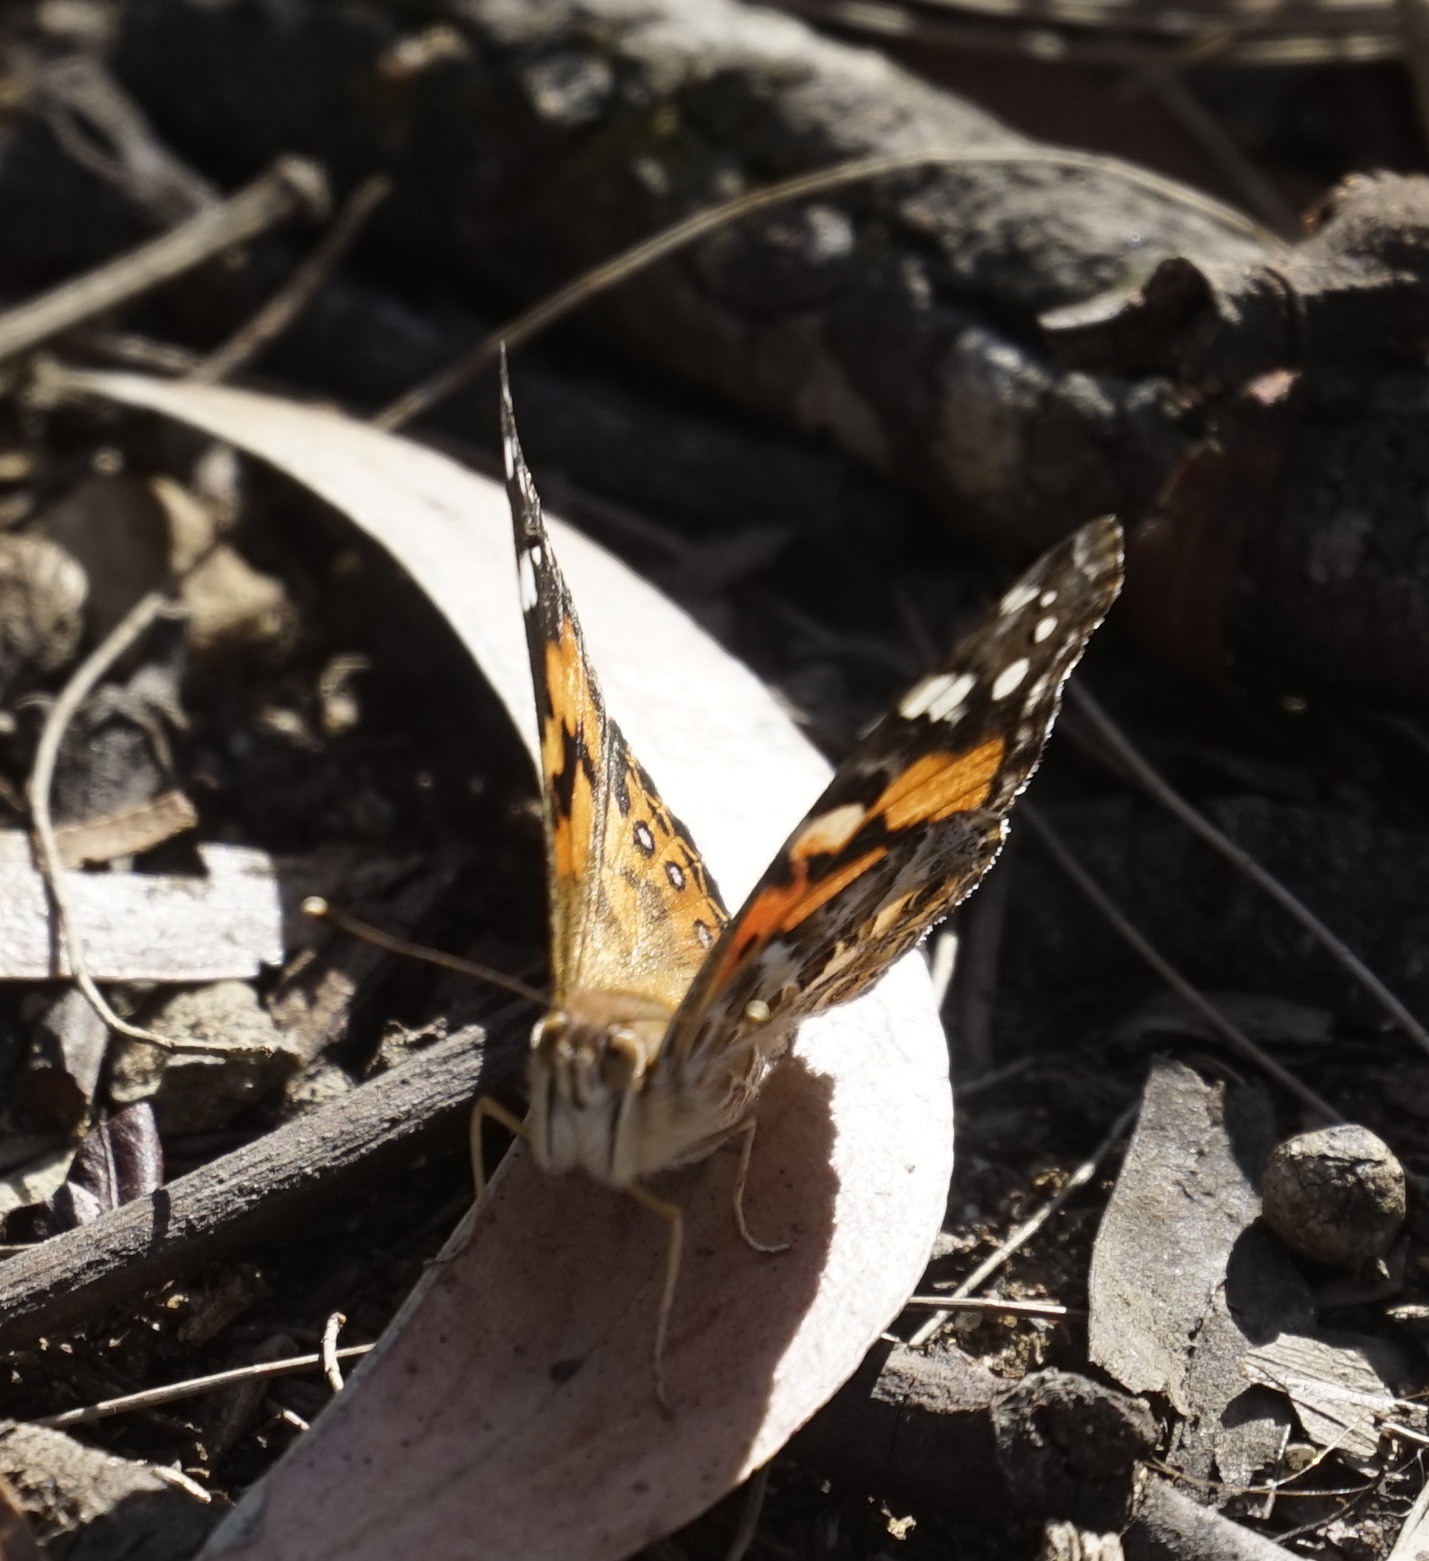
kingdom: Animalia
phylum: Arthropoda
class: Insecta
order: Lepidoptera
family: Nymphalidae
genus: Vanessa
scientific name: Vanessa kershawi
